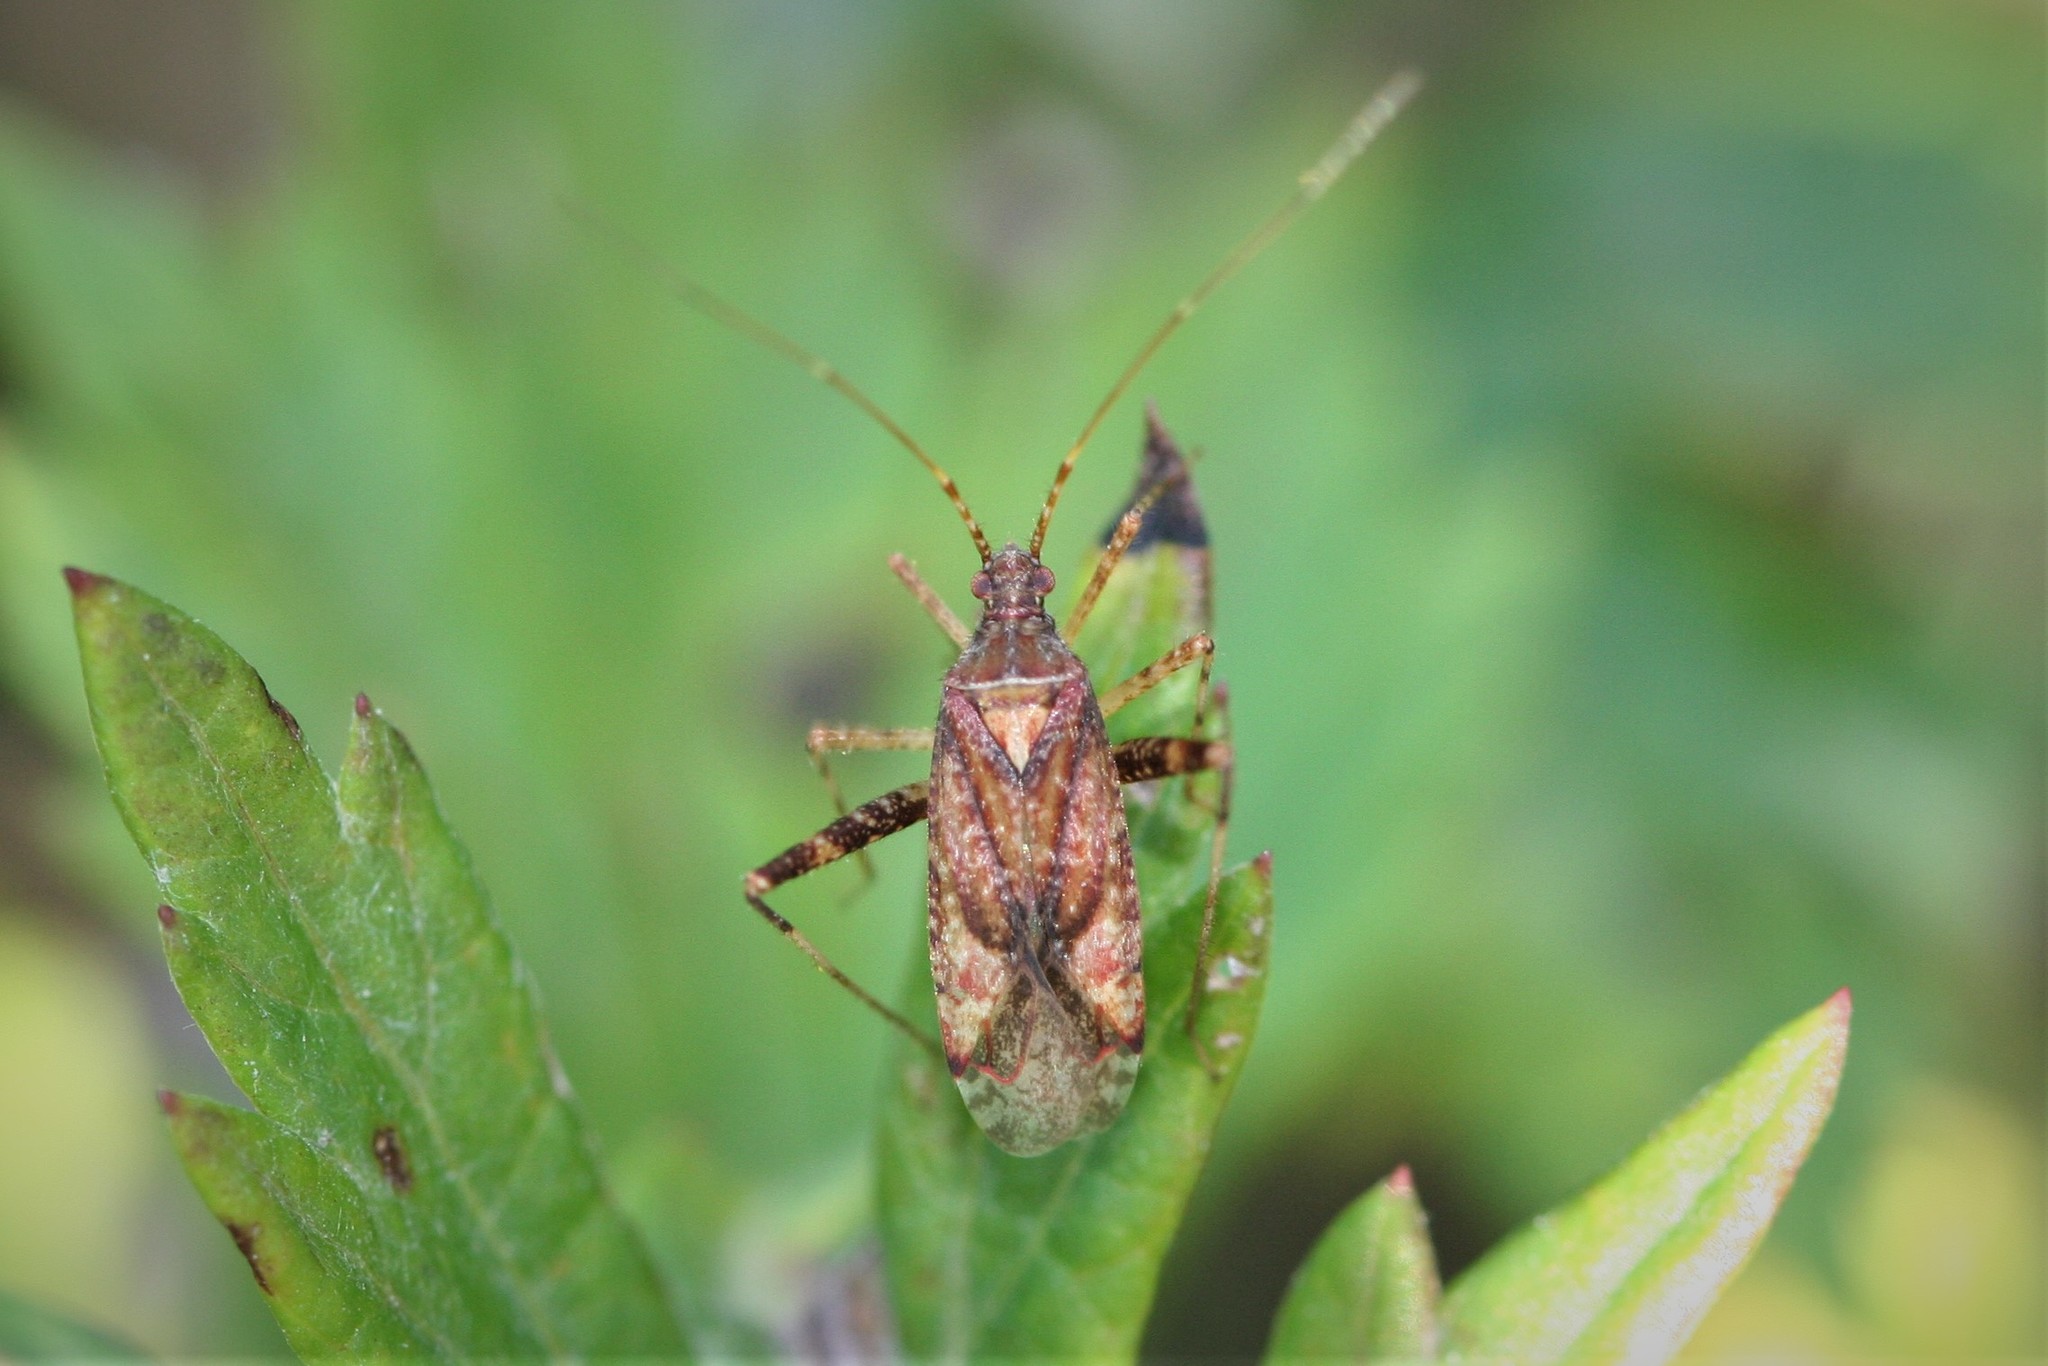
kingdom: Animalia
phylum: Arthropoda
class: Insecta
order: Hemiptera
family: Miridae
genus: Phytocoris
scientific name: Phytocoris ulmi
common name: Plant bug
